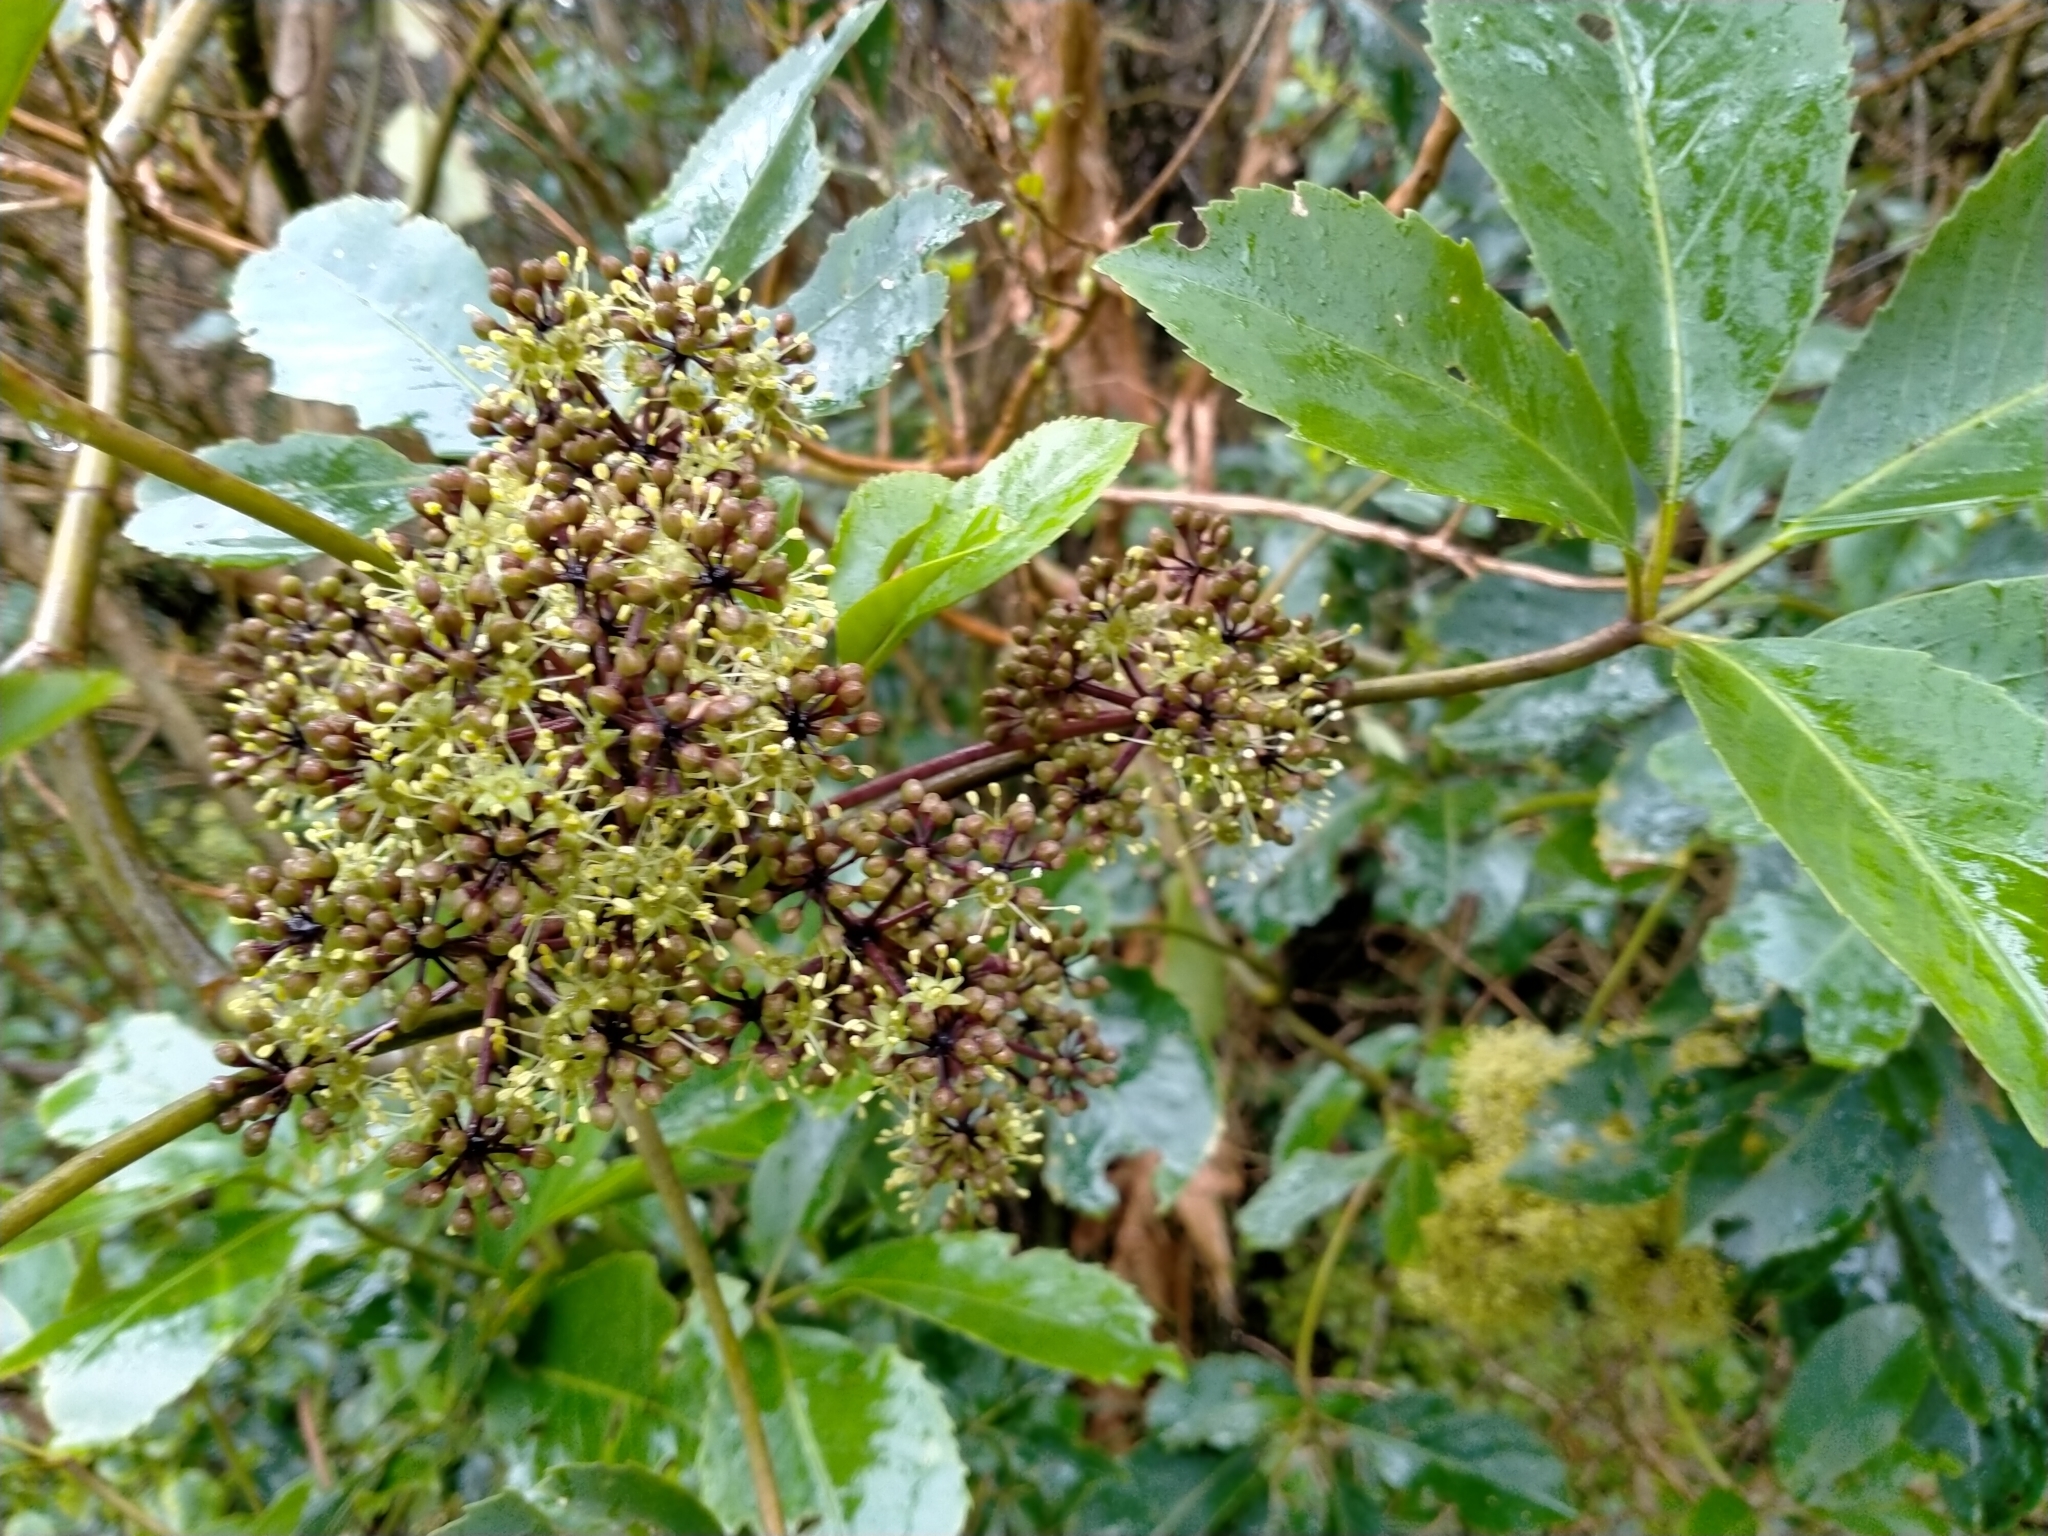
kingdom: Plantae
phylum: Tracheophyta
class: Magnoliopsida
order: Apiales
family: Araliaceae
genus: Neopanax
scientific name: Neopanax arboreus
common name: Five-fingers
